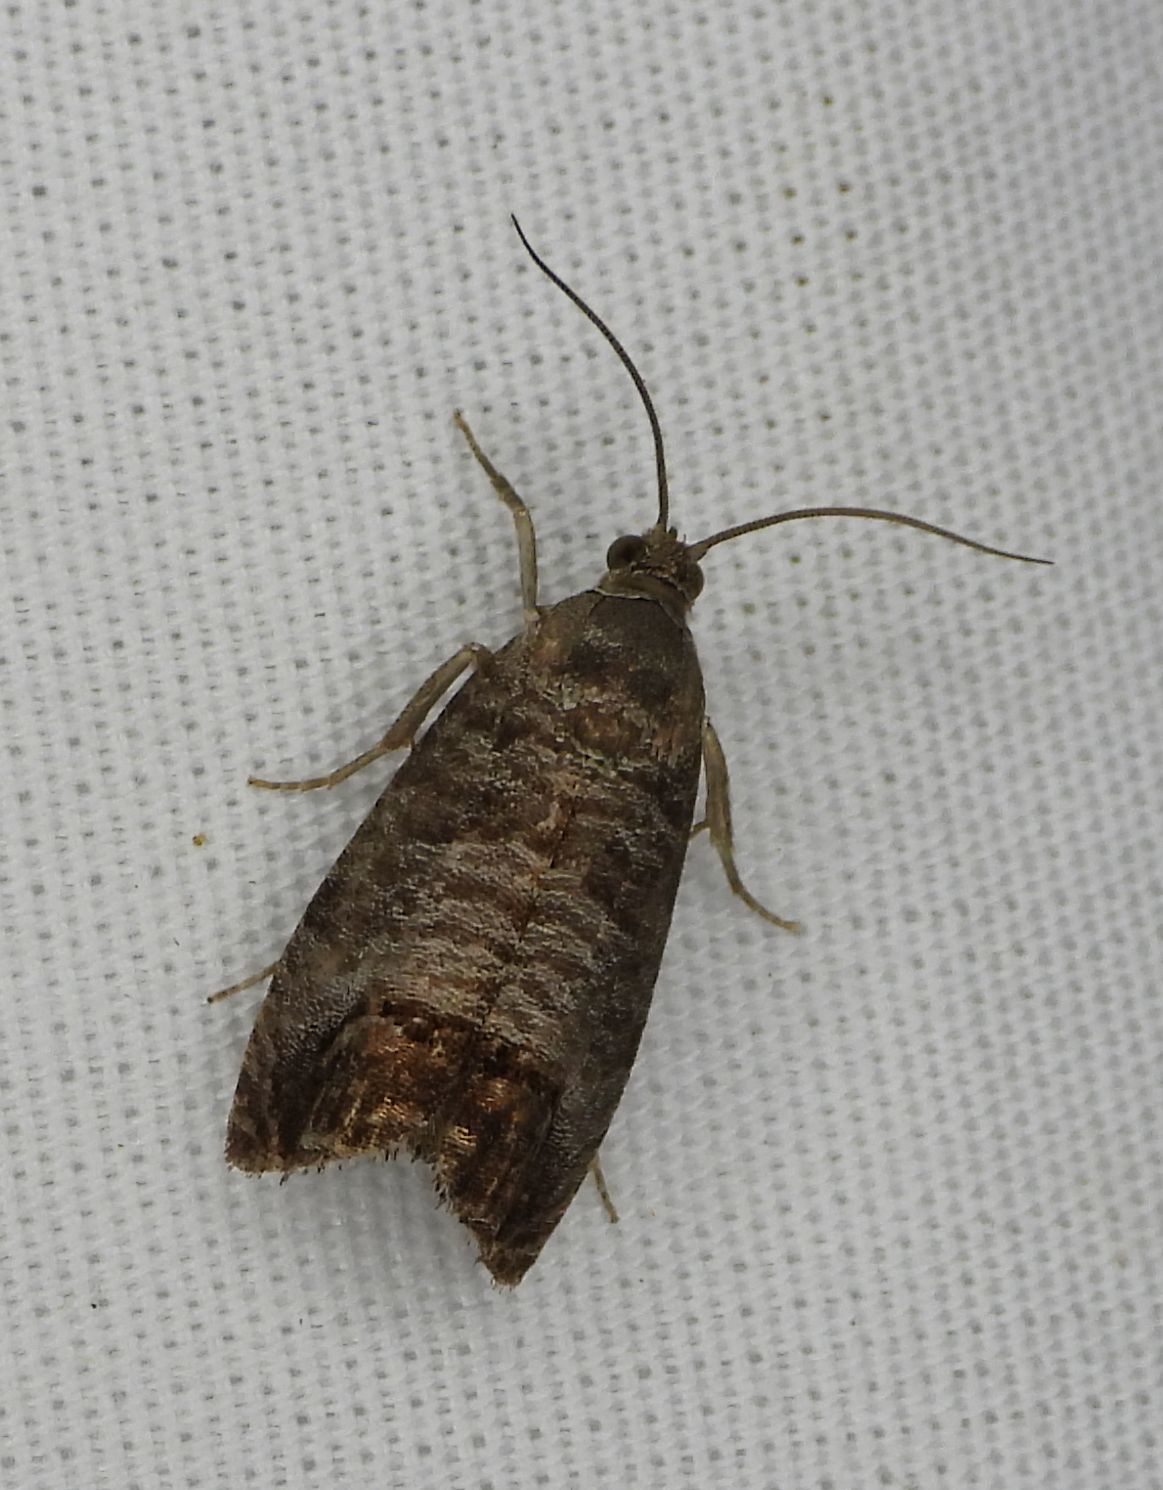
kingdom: Animalia
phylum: Arthropoda
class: Insecta
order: Lepidoptera
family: Tortricidae
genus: Cydia
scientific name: Cydia pomonella
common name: Codling moth
